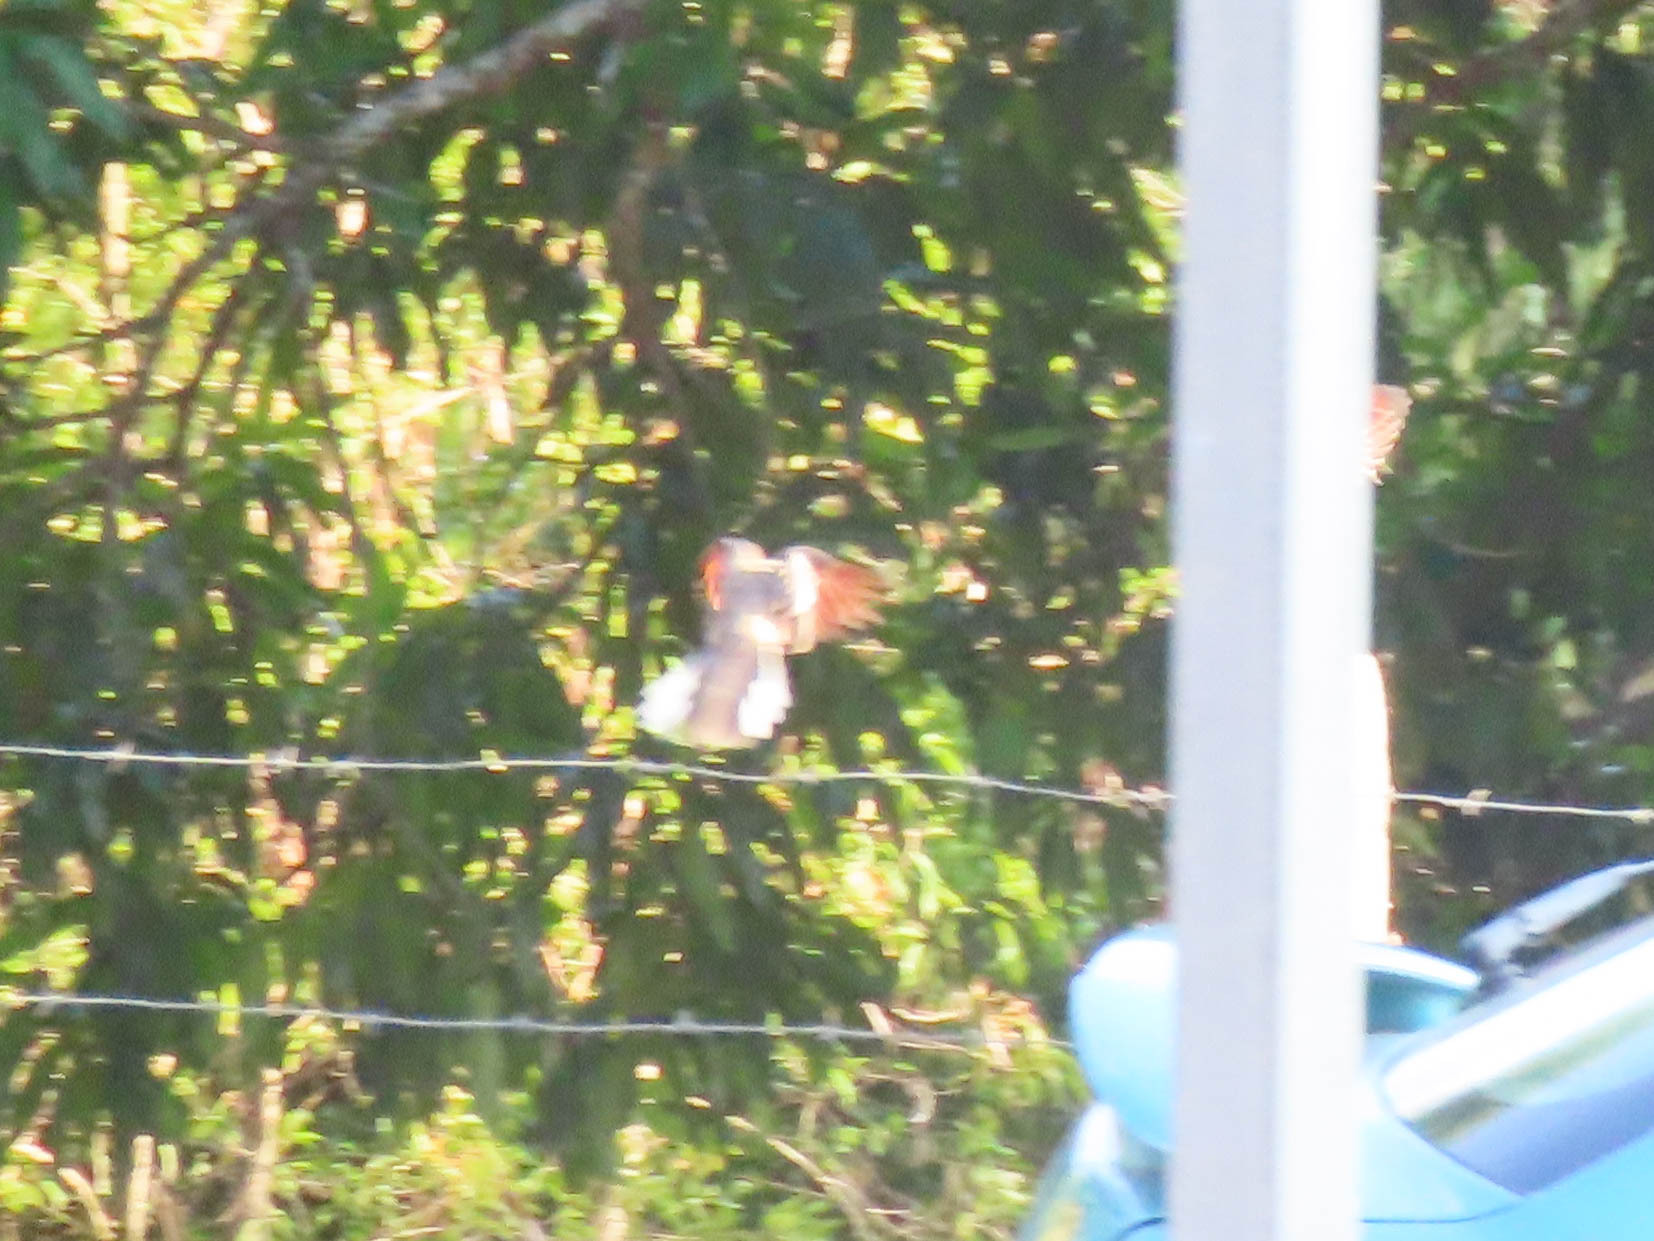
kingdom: Animalia
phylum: Chordata
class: Aves
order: Columbiformes
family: Columbidae
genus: Columbina
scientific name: Columbina inca
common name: Inca dove
